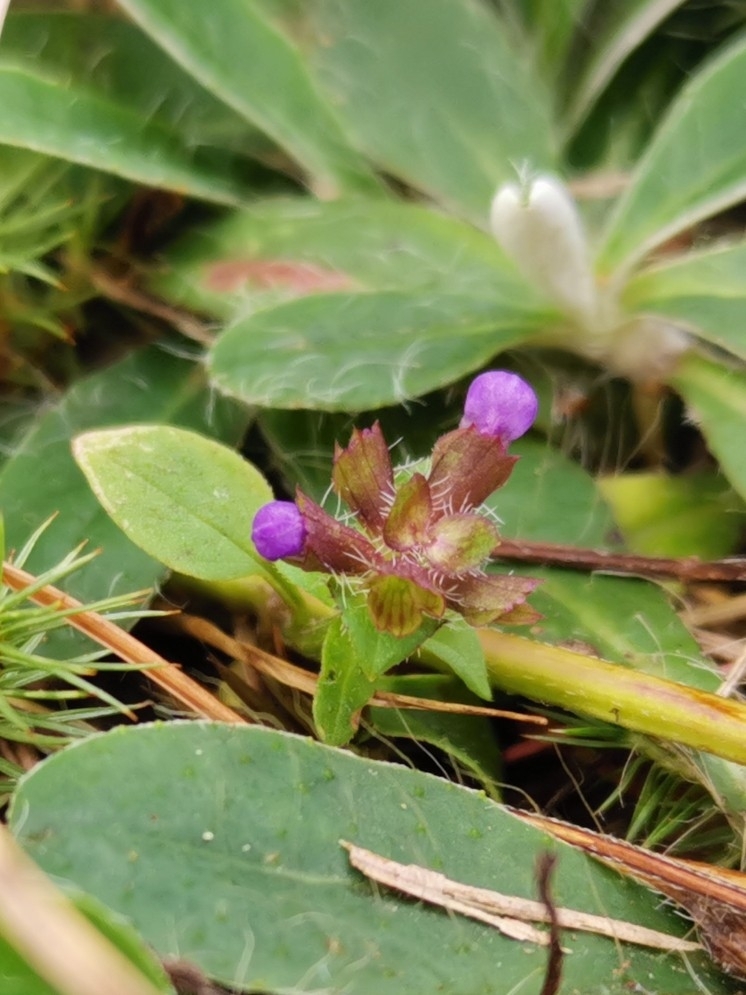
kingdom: Plantae
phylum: Tracheophyta
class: Magnoliopsida
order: Lamiales
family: Lamiaceae
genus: Prunella
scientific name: Prunella vulgaris
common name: Heal-all
